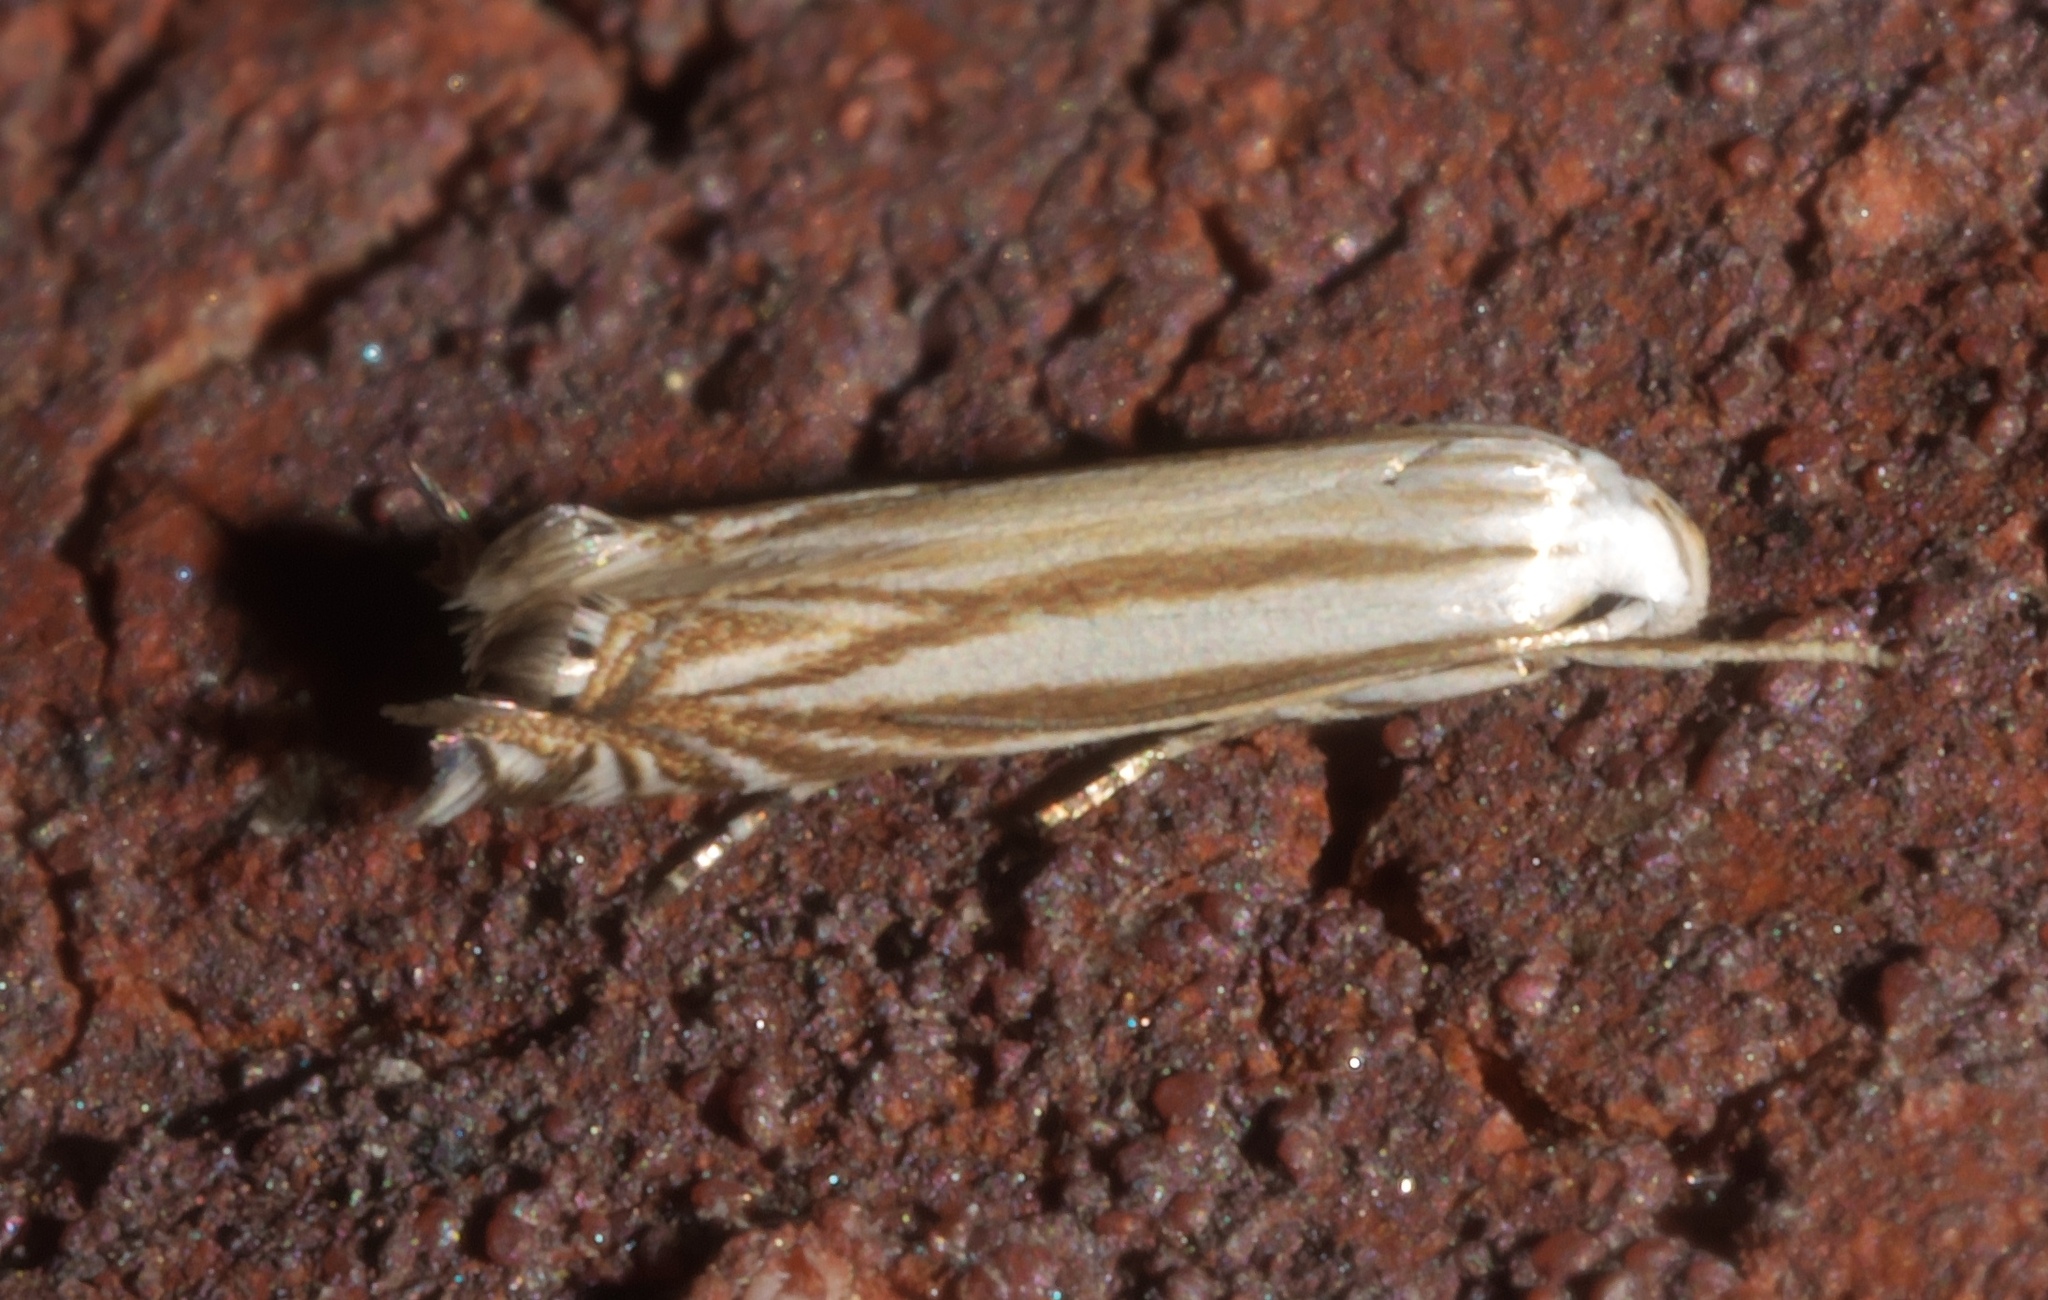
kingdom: Animalia
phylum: Arthropoda
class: Insecta
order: Lepidoptera
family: Gelechiidae
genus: Polyhymno
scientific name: Polyhymno luteostrigella
